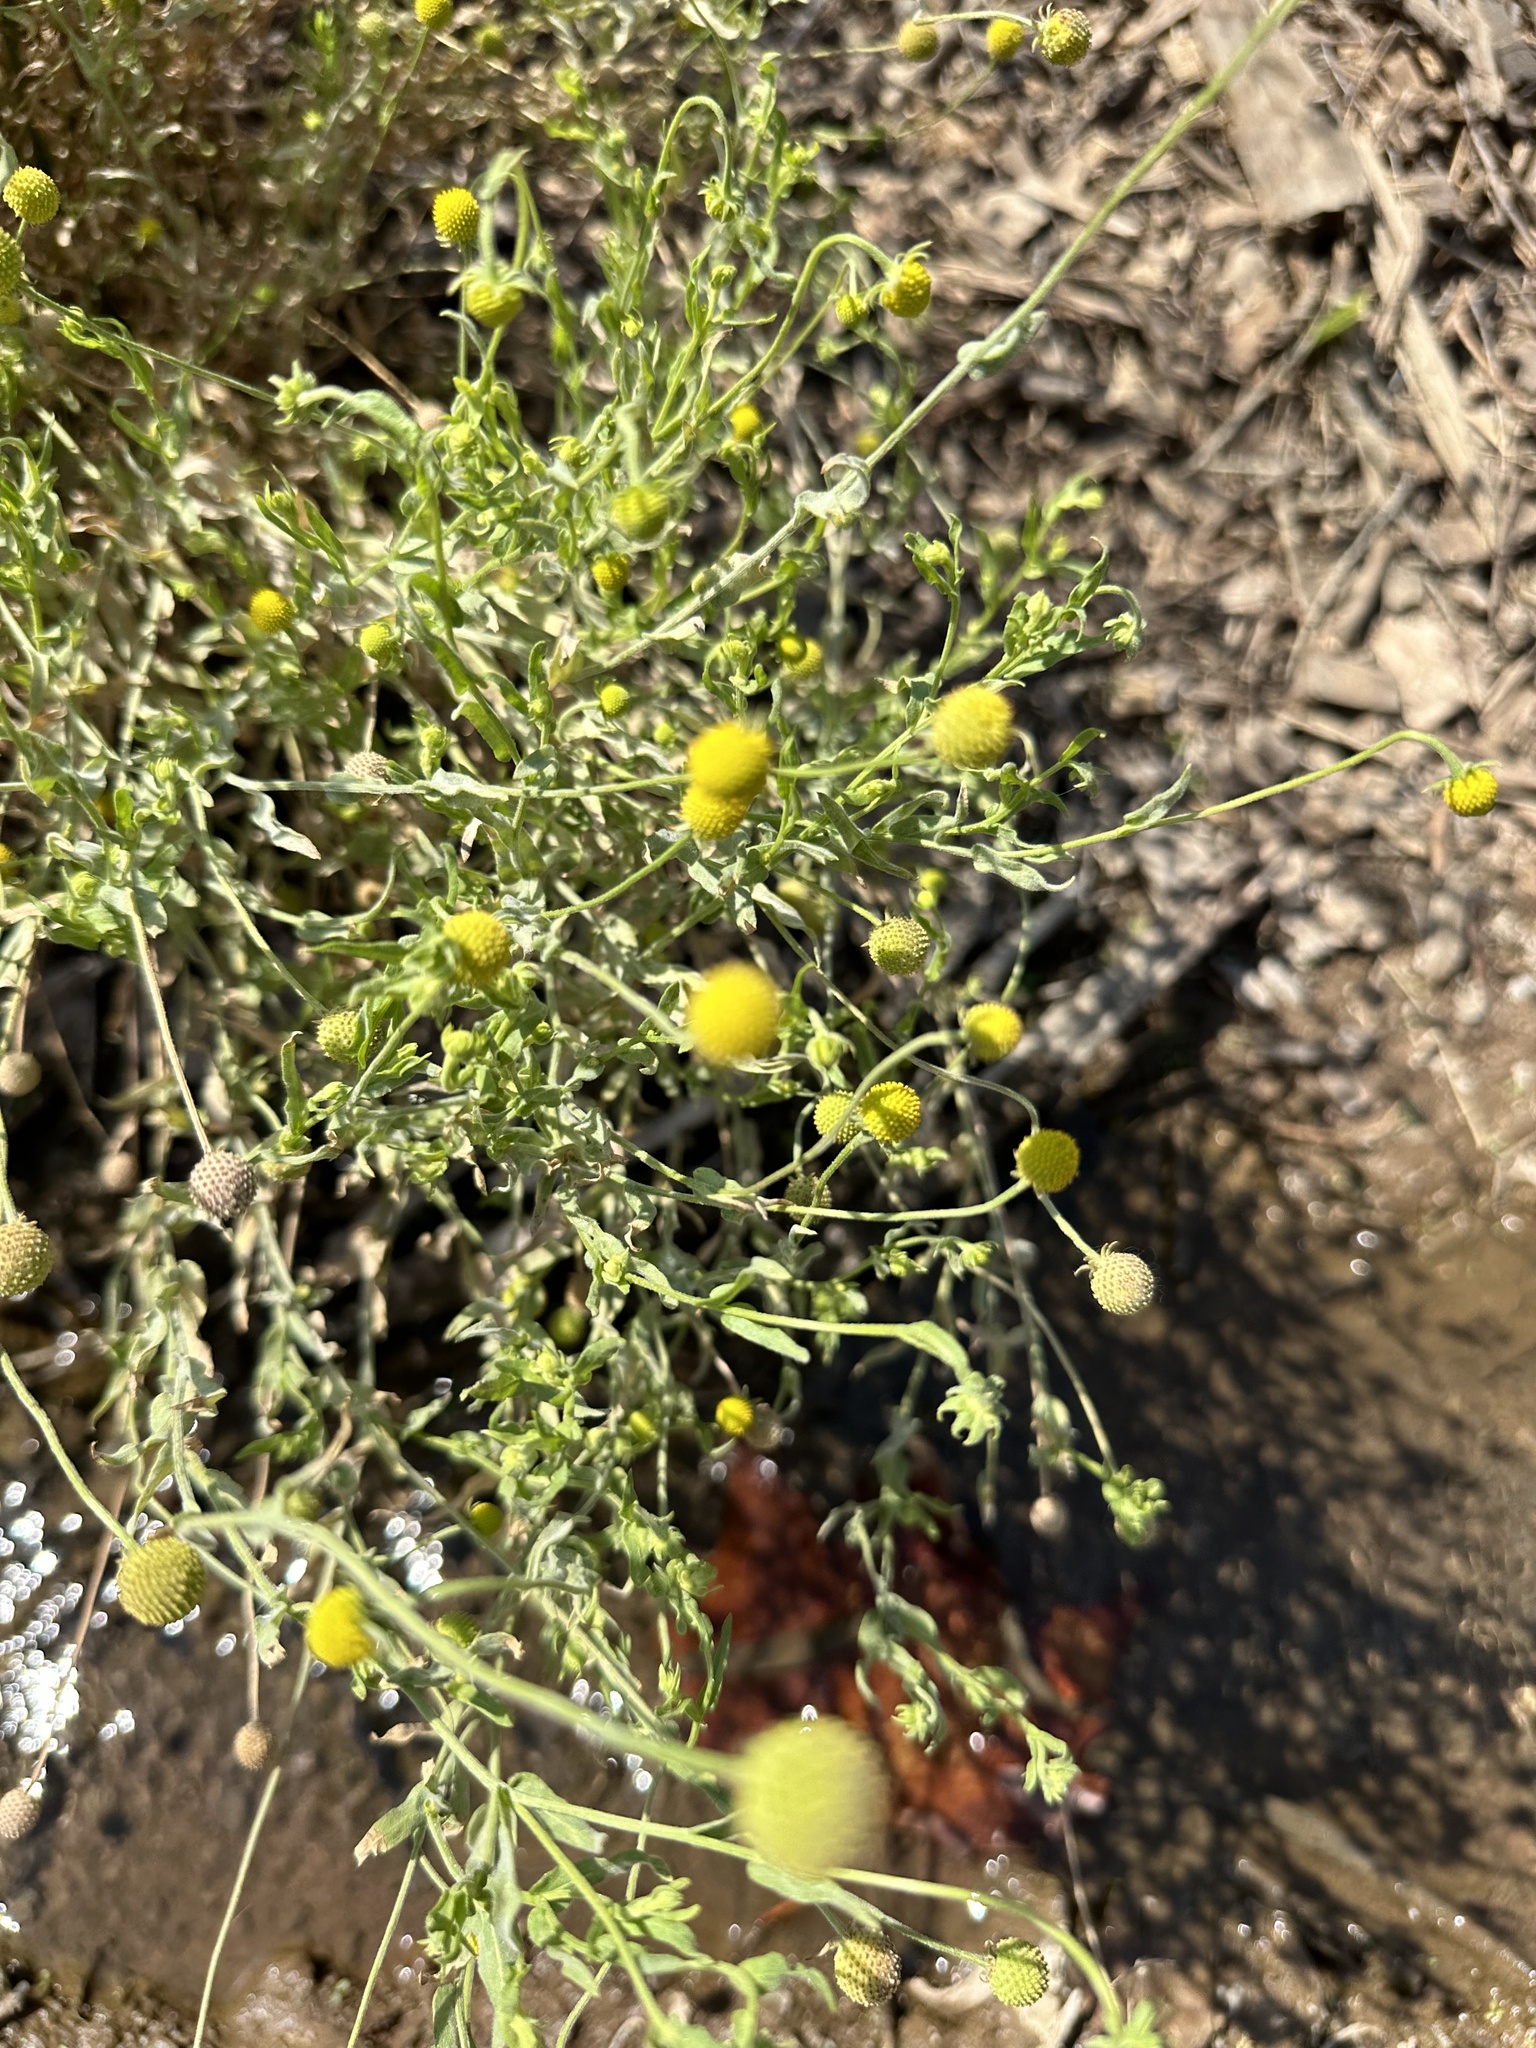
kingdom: Plantae
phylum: Tracheophyta
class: Magnoliopsida
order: Asterales
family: Asteraceae
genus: Helenium
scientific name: Helenium aromaticum
